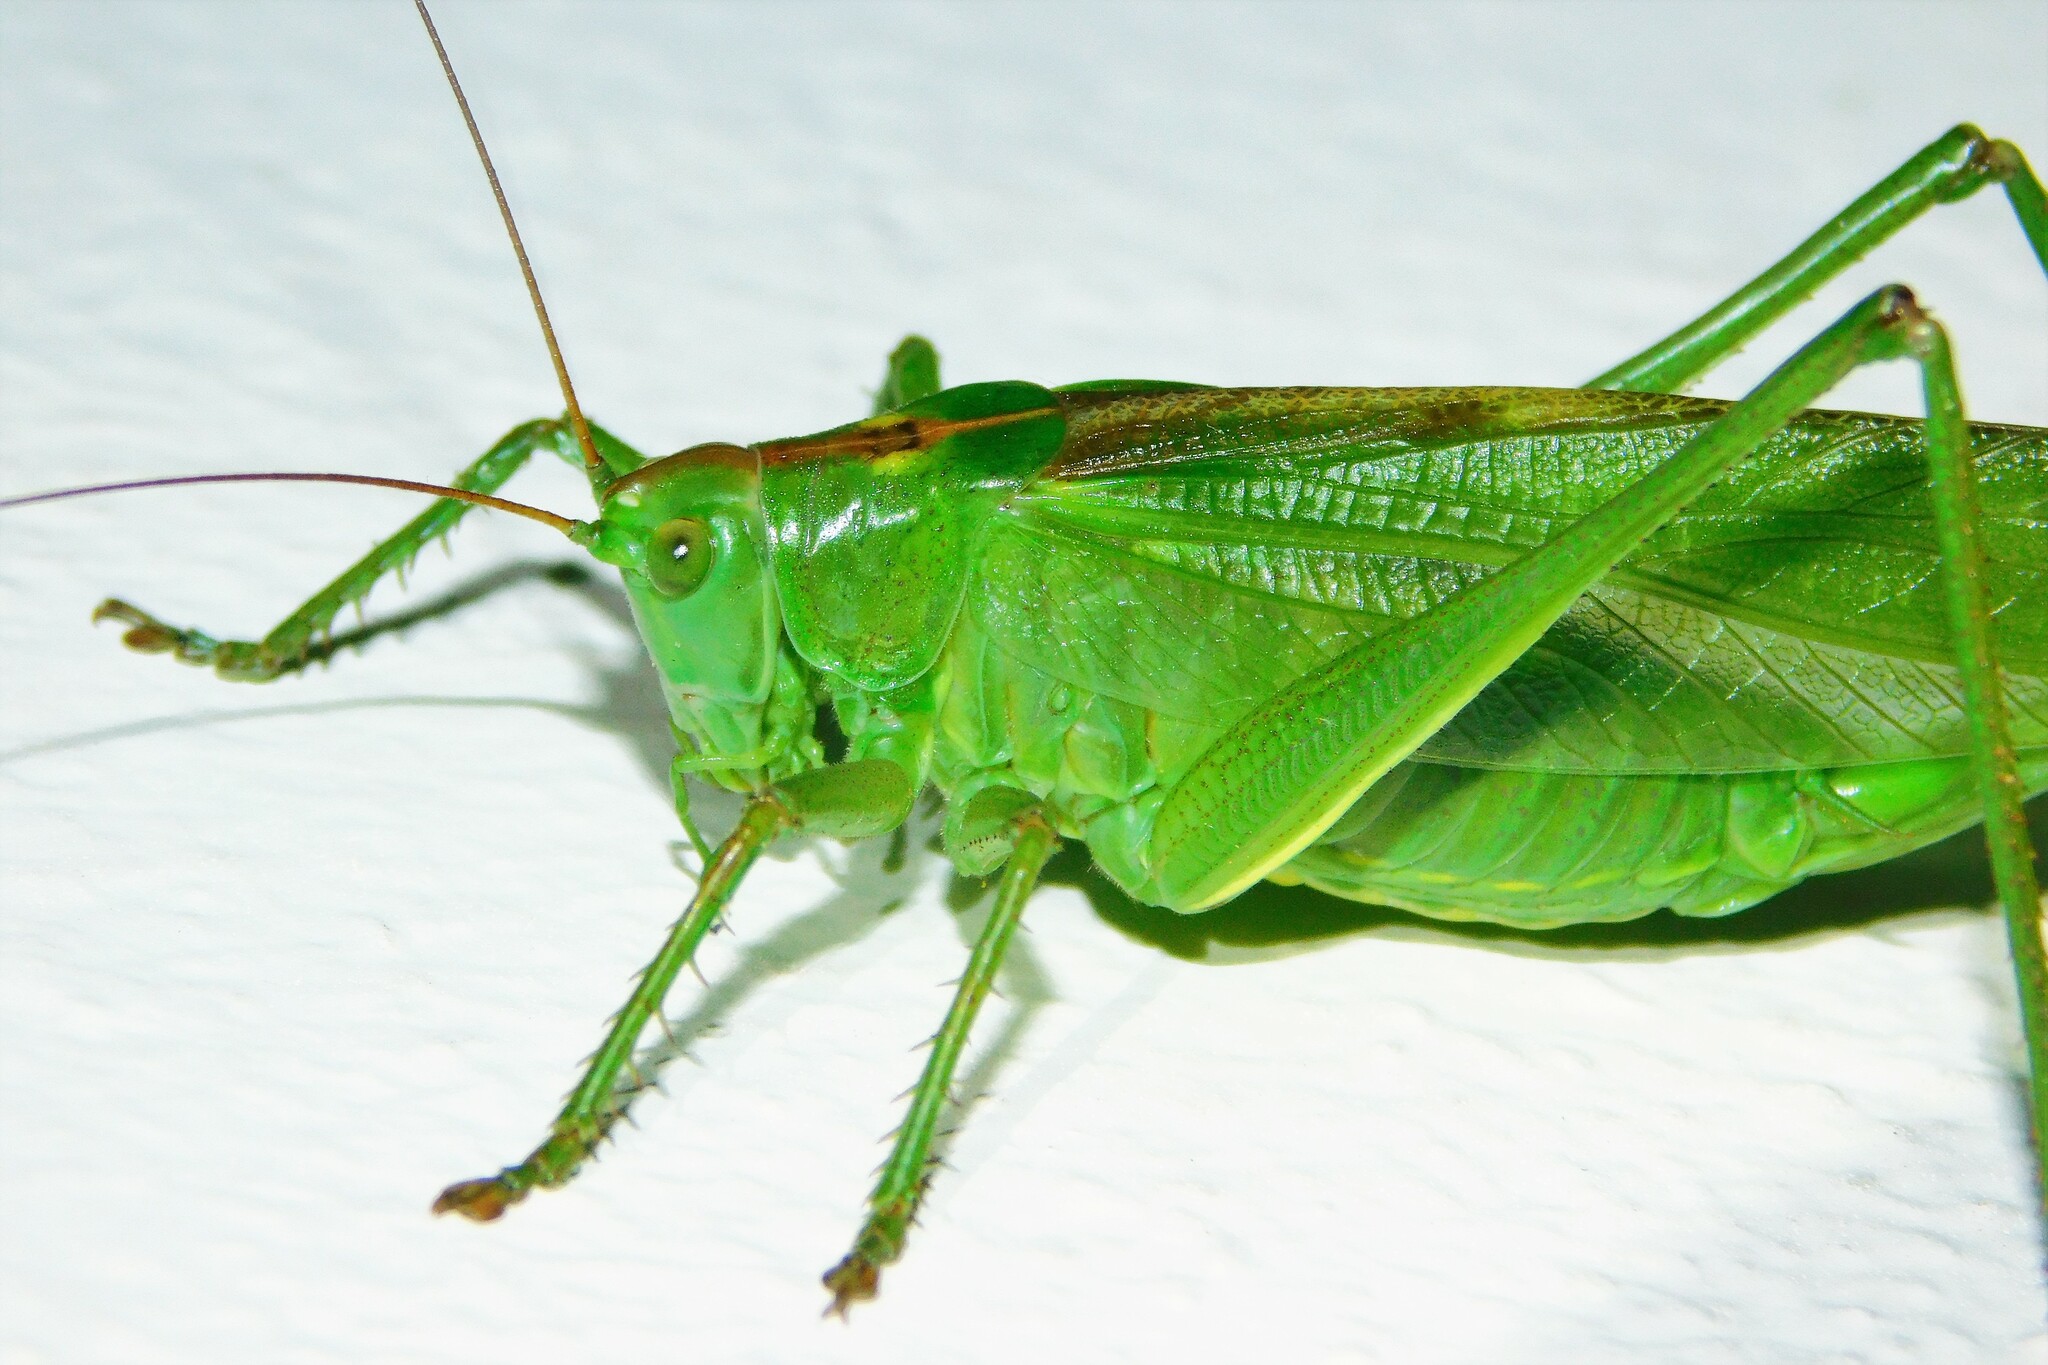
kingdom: Animalia
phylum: Arthropoda
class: Insecta
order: Orthoptera
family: Tettigoniidae
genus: Tettigonia
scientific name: Tettigonia viridissima
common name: Great green bush-cricket
